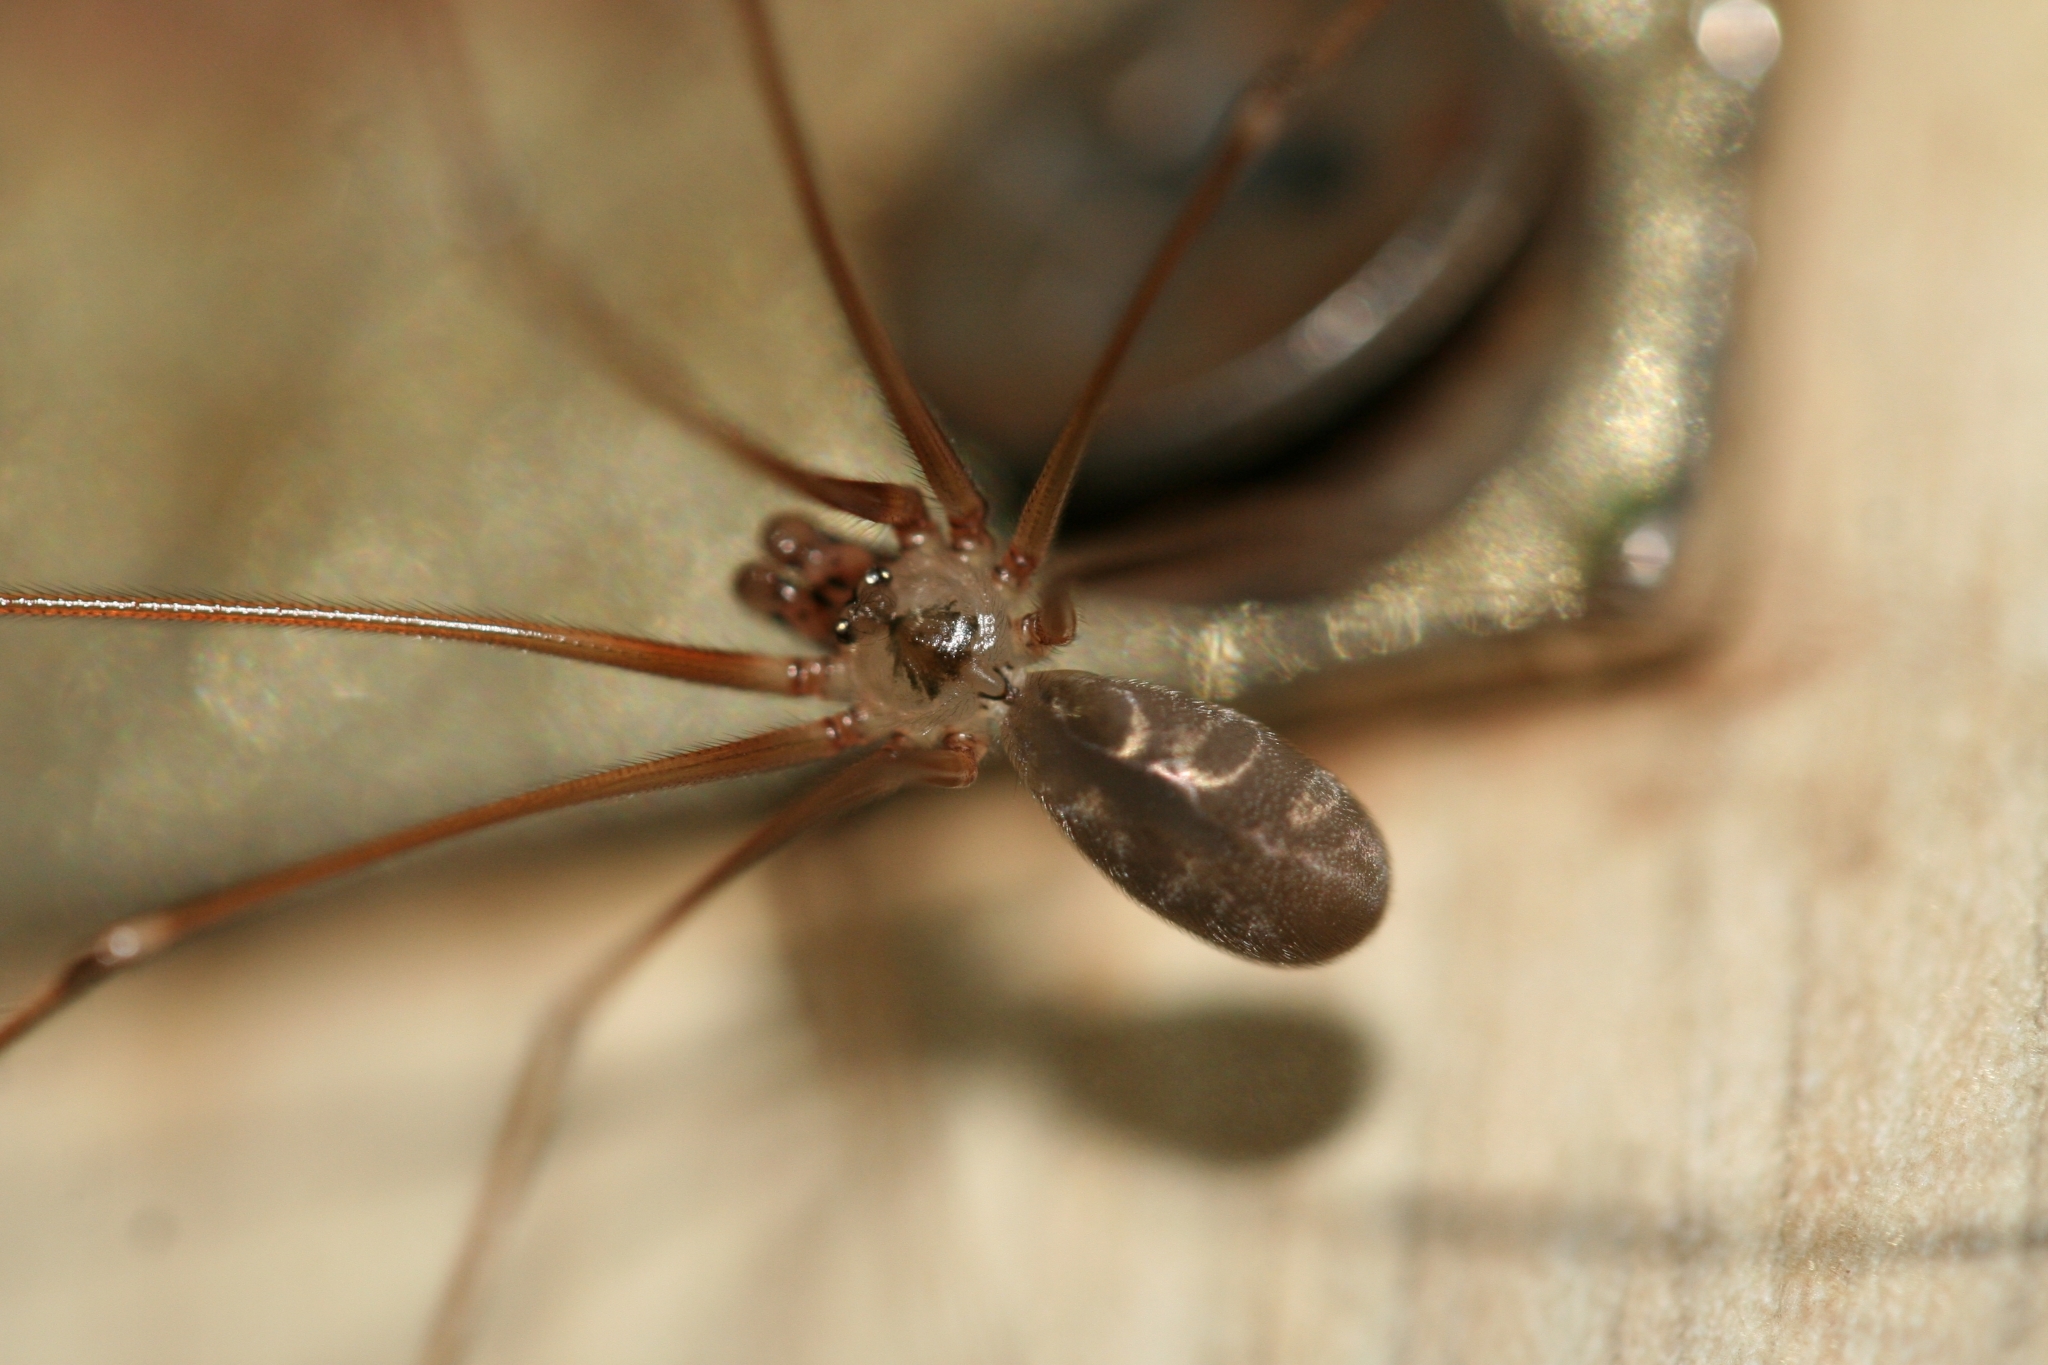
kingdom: Animalia
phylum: Arthropoda
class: Arachnida
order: Araneae
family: Pholcidae
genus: Pholcus
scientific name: Pholcus phalangioides
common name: Longbodied cellar spider
